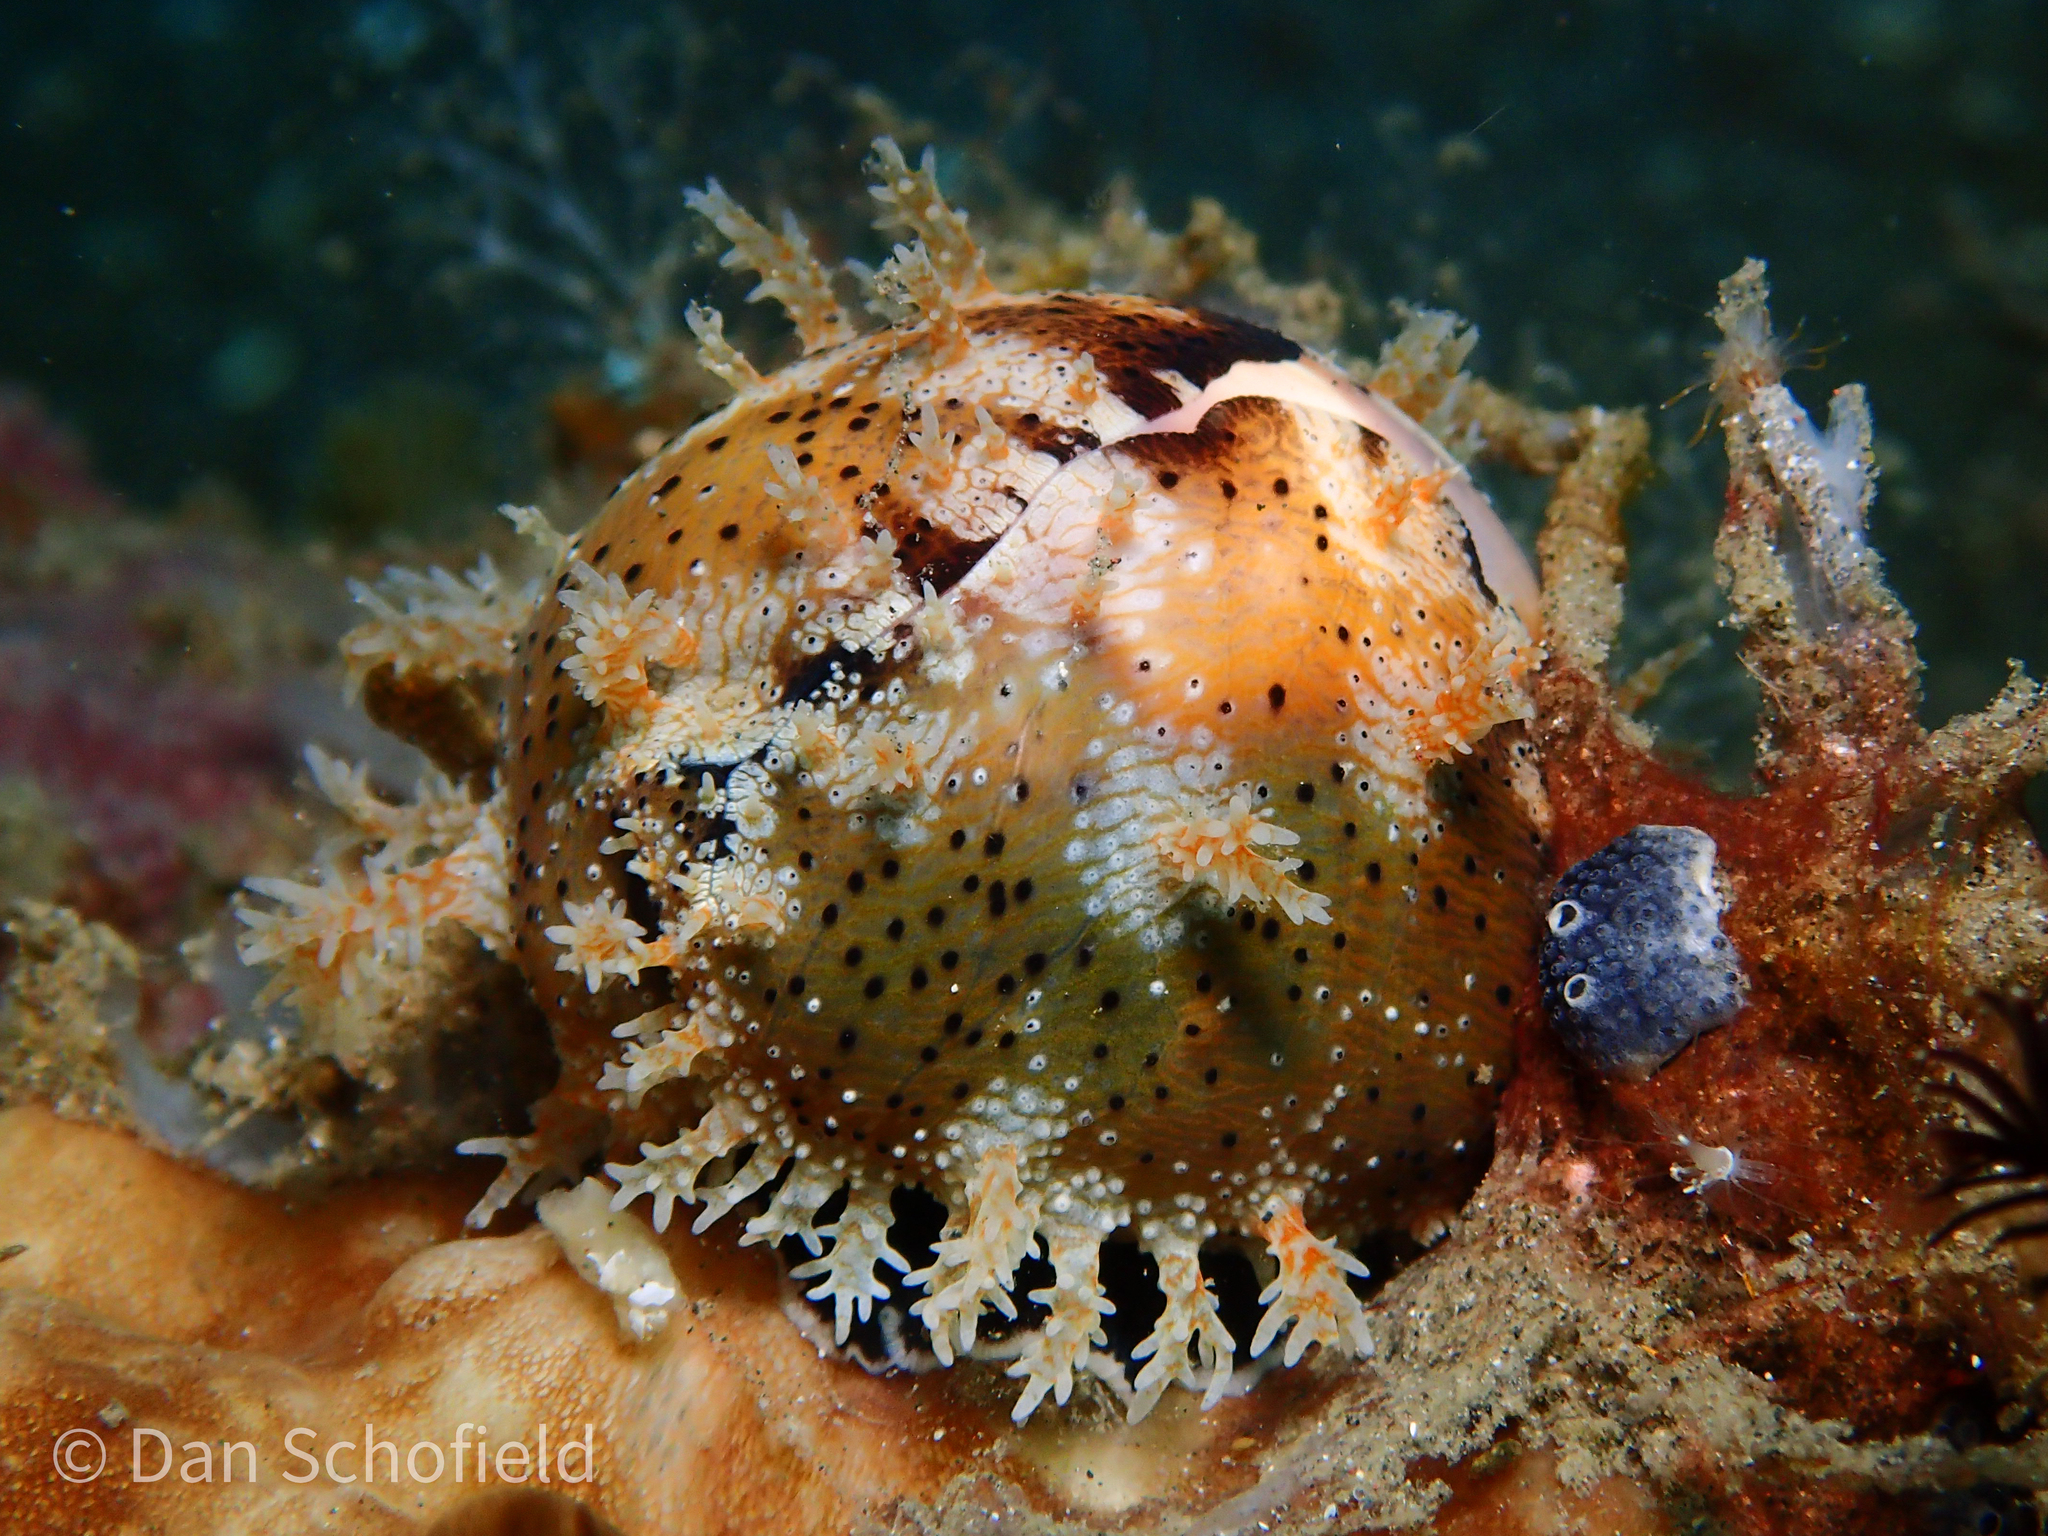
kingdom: Animalia
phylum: Mollusca
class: Gastropoda
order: Littorinimorpha
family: Cypraeidae
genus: Erronea
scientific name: Erronea onyx
